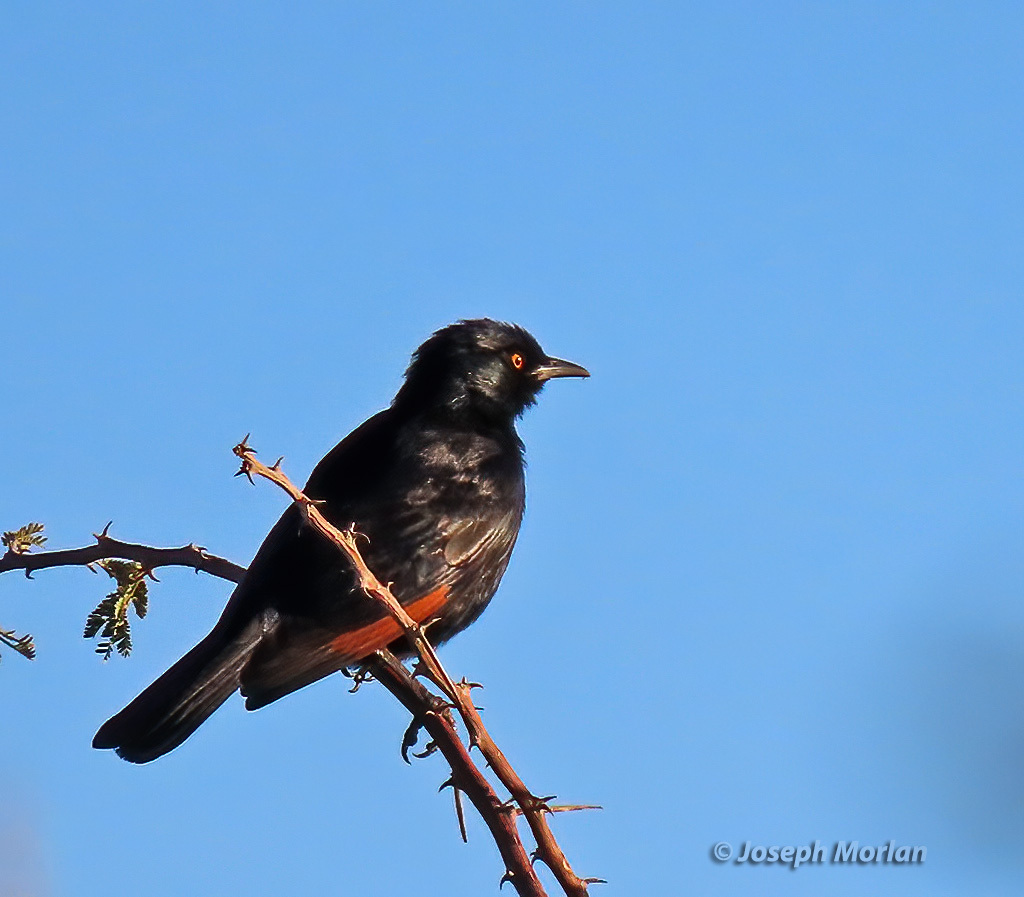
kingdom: Animalia
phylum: Chordata
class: Aves
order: Passeriformes
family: Sturnidae
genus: Onychognathus
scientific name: Onychognathus nabouroup
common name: Pale-winged starling
